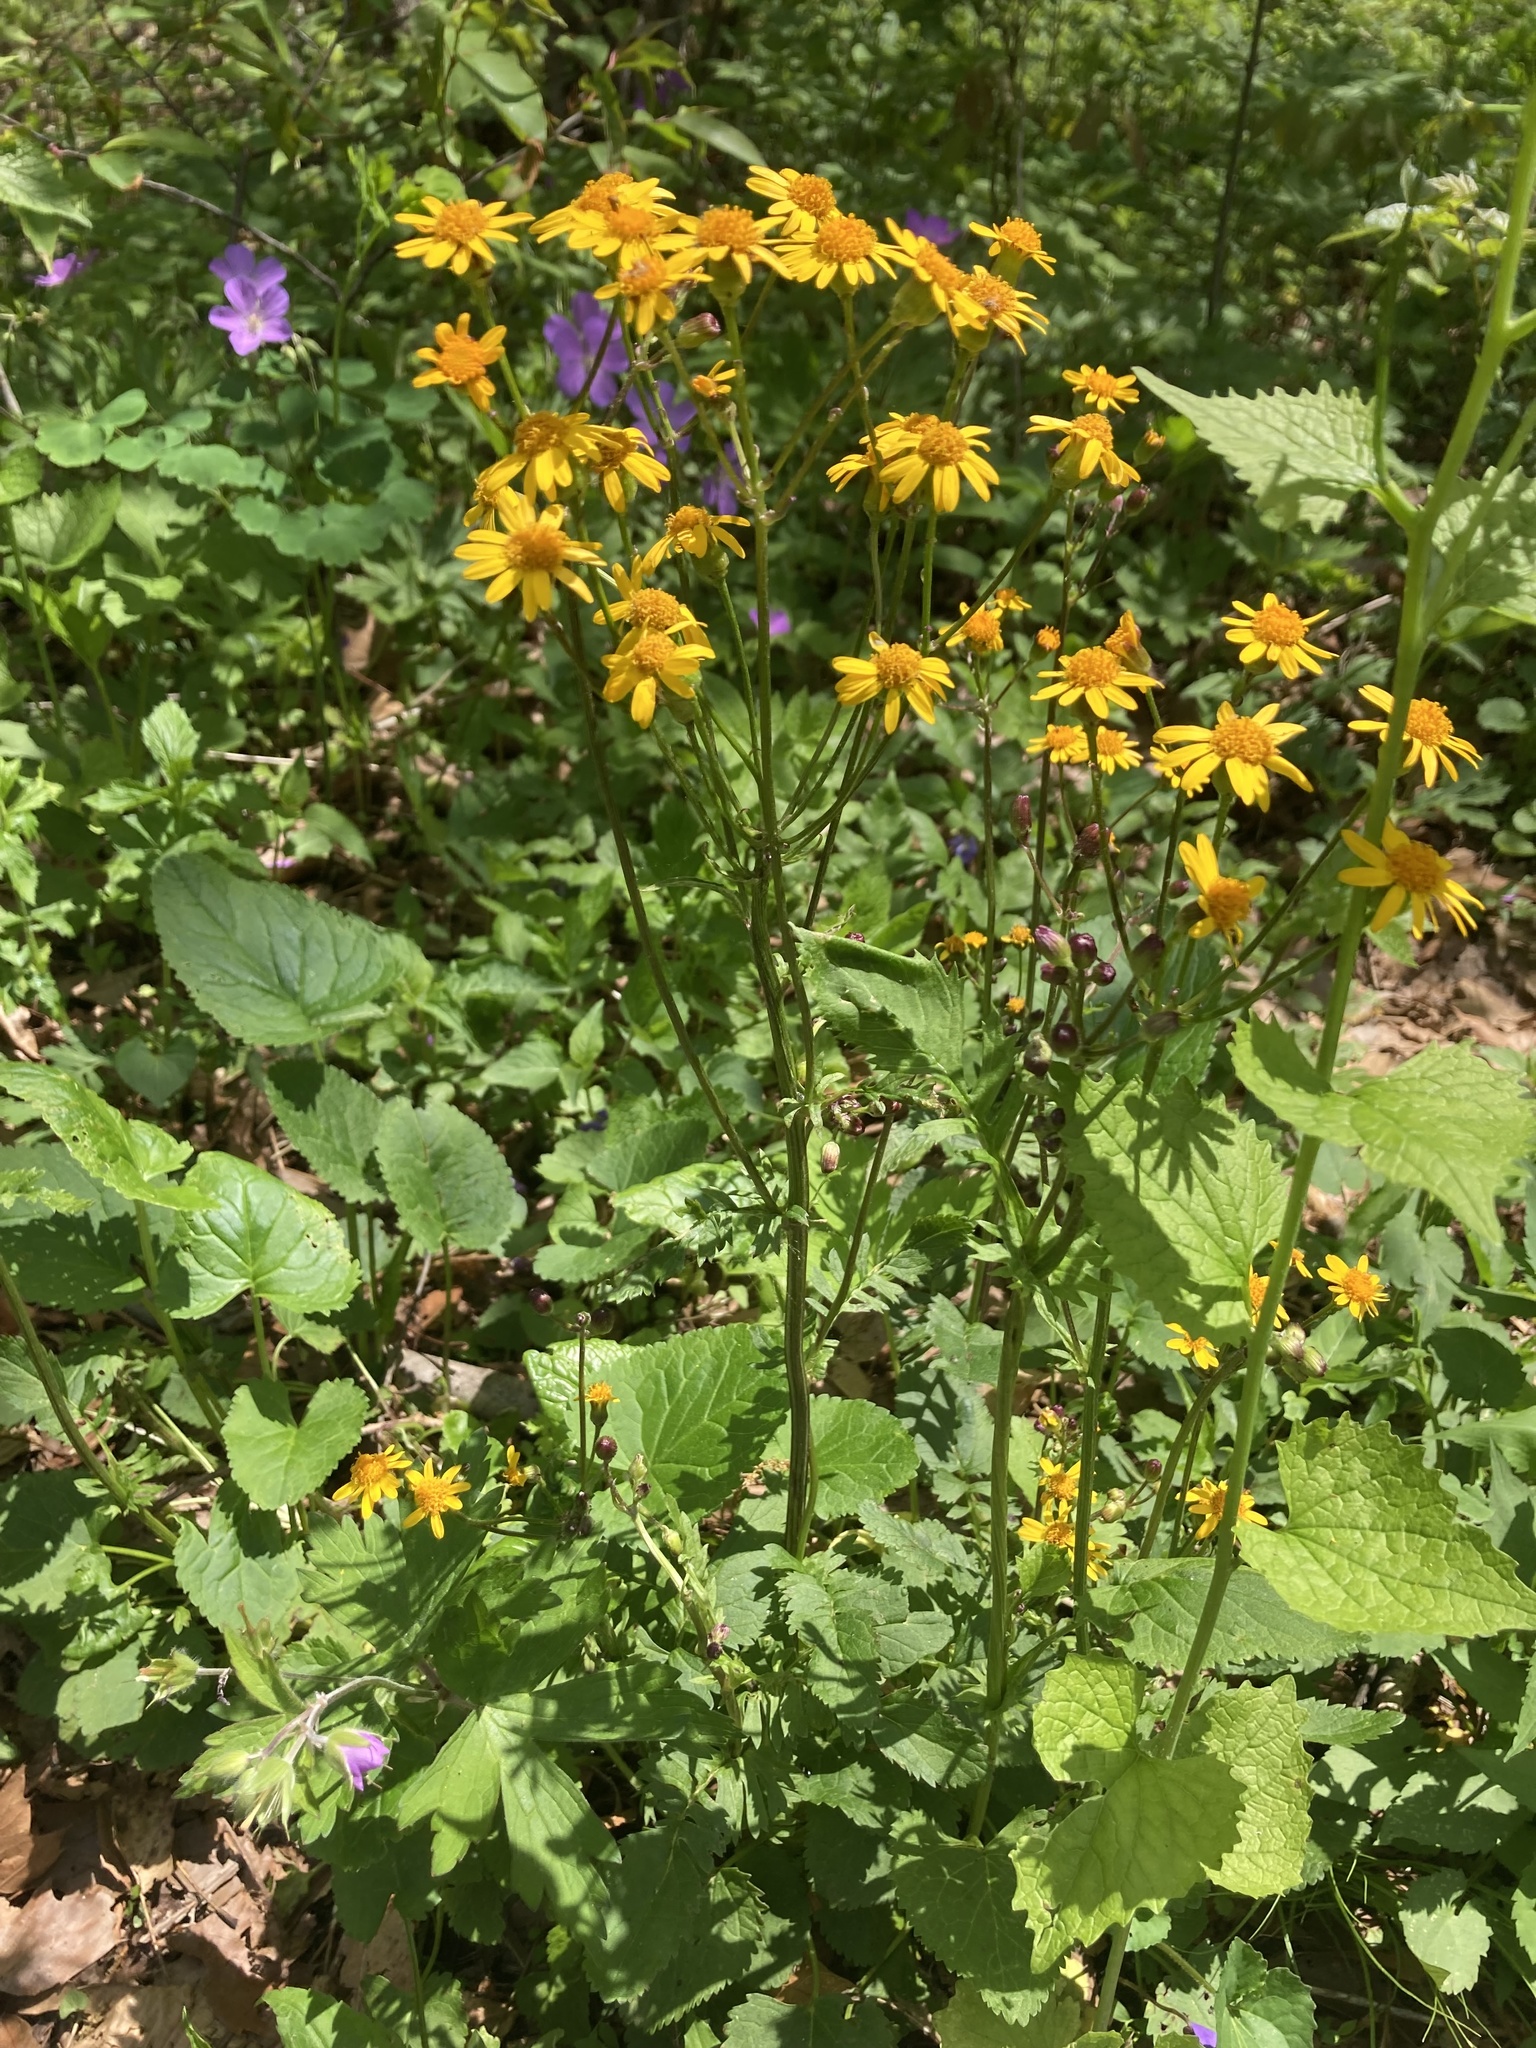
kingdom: Plantae
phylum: Tracheophyta
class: Magnoliopsida
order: Asterales
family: Asteraceae
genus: Packera
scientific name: Packera aurea
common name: Golden groundsel
